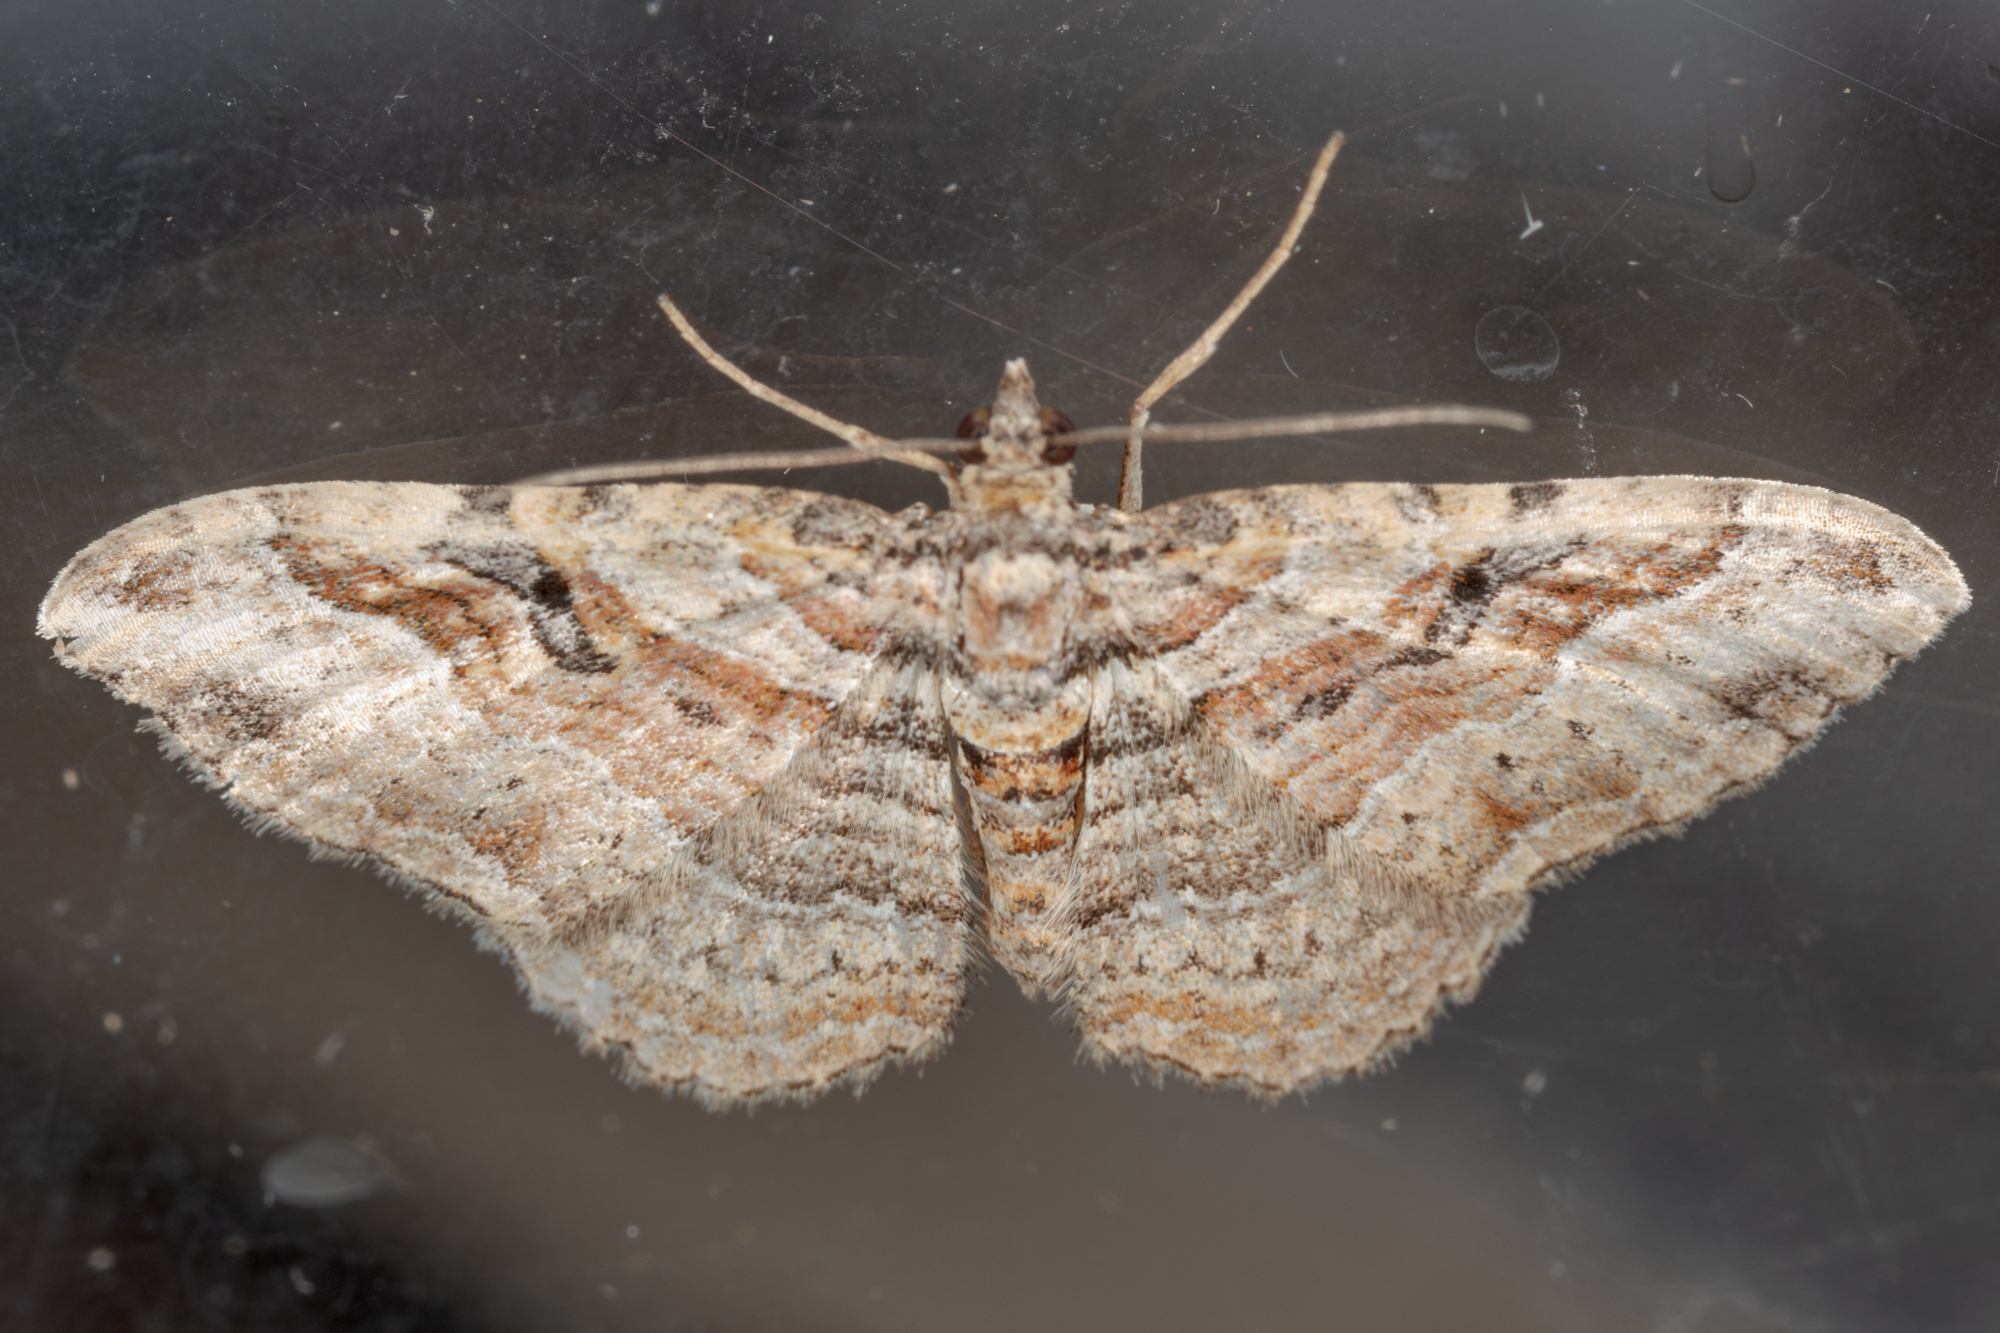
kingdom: Animalia
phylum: Arthropoda
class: Insecta
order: Lepidoptera
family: Geometridae
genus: Costaconvexa
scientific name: Costaconvexa centrostrigaria
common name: Bent-line carpet
